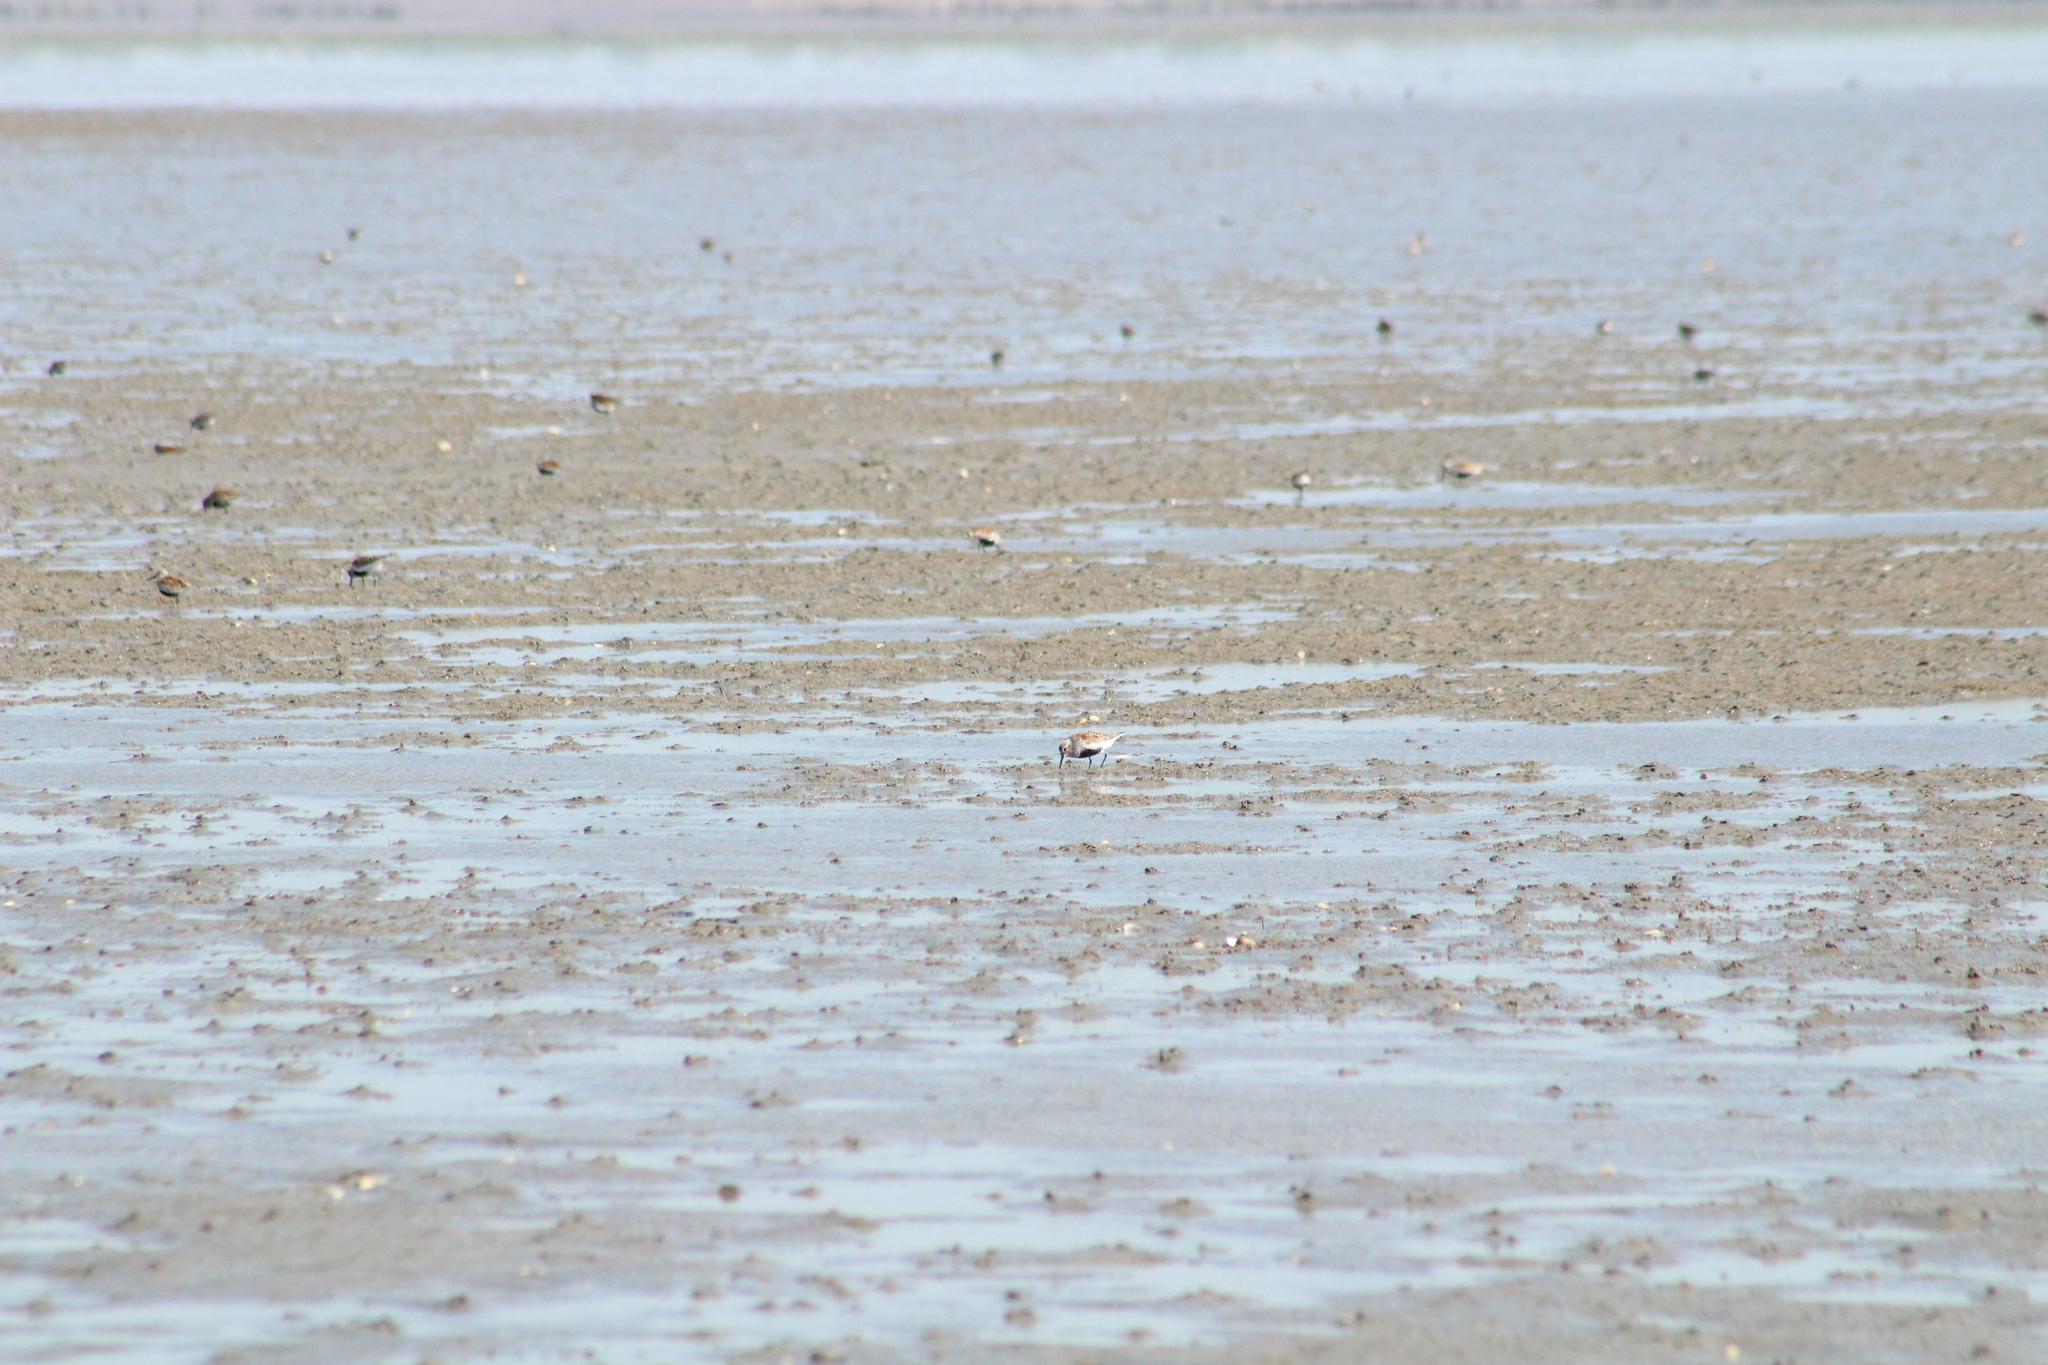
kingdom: Animalia
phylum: Chordata
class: Aves
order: Charadriiformes
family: Scolopacidae
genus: Calidris
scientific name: Calidris alpina
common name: Dunlin
